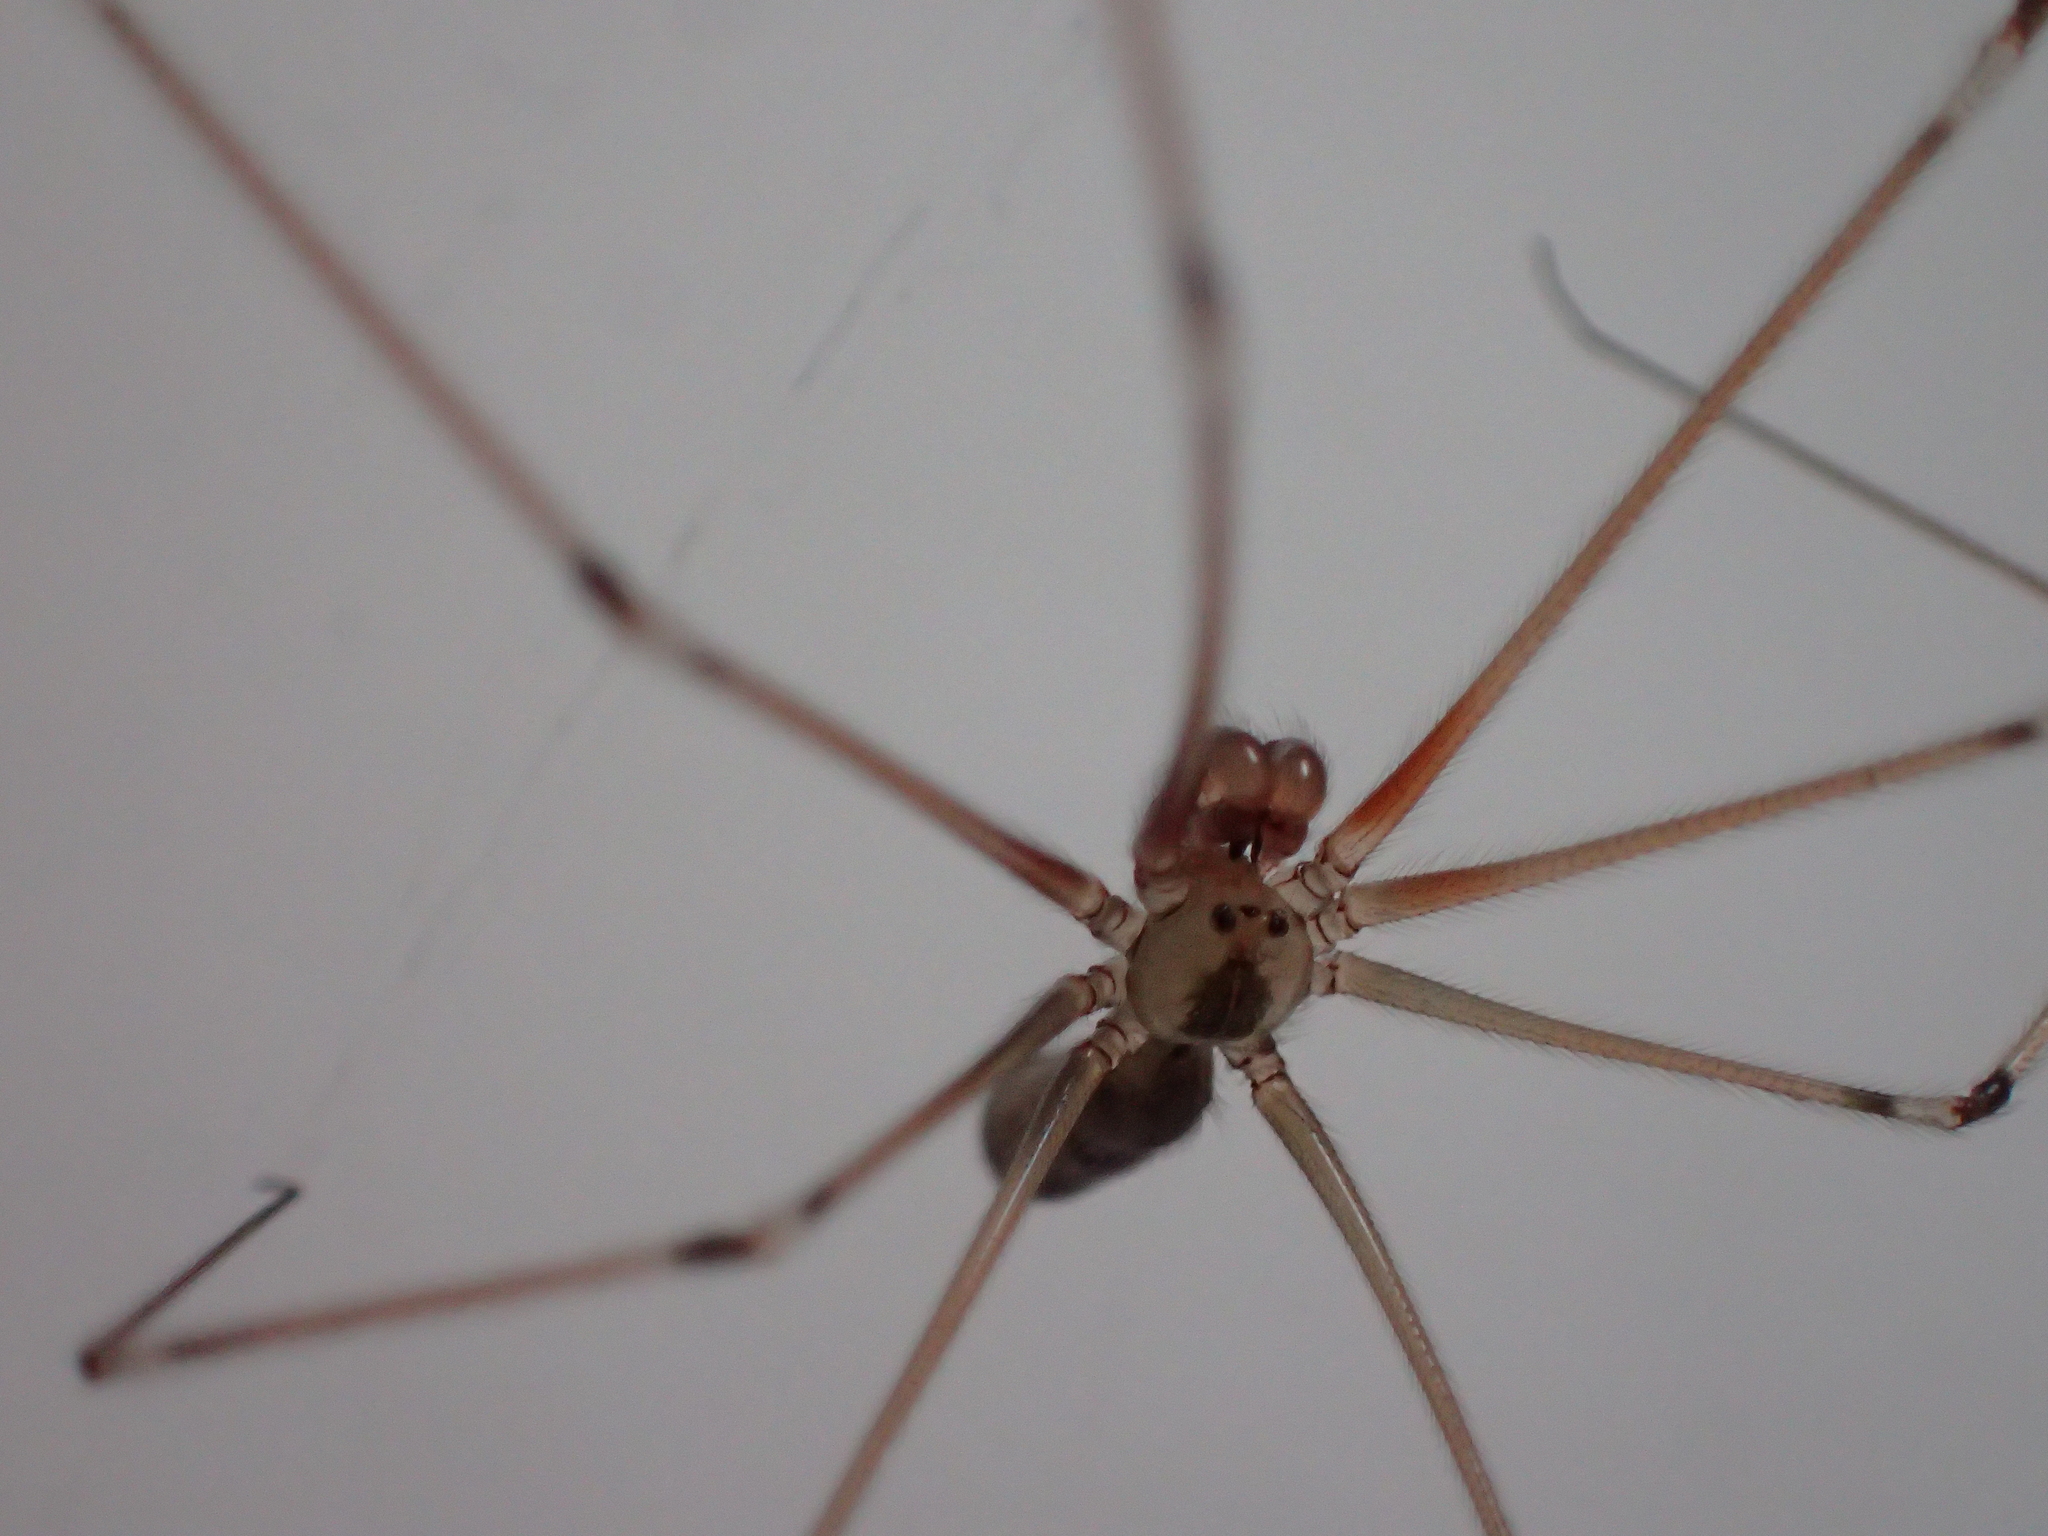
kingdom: Animalia
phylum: Arthropoda
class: Arachnida
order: Araneae
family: Pholcidae
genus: Pholcus
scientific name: Pholcus phalangioides
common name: Longbodied cellar spider
